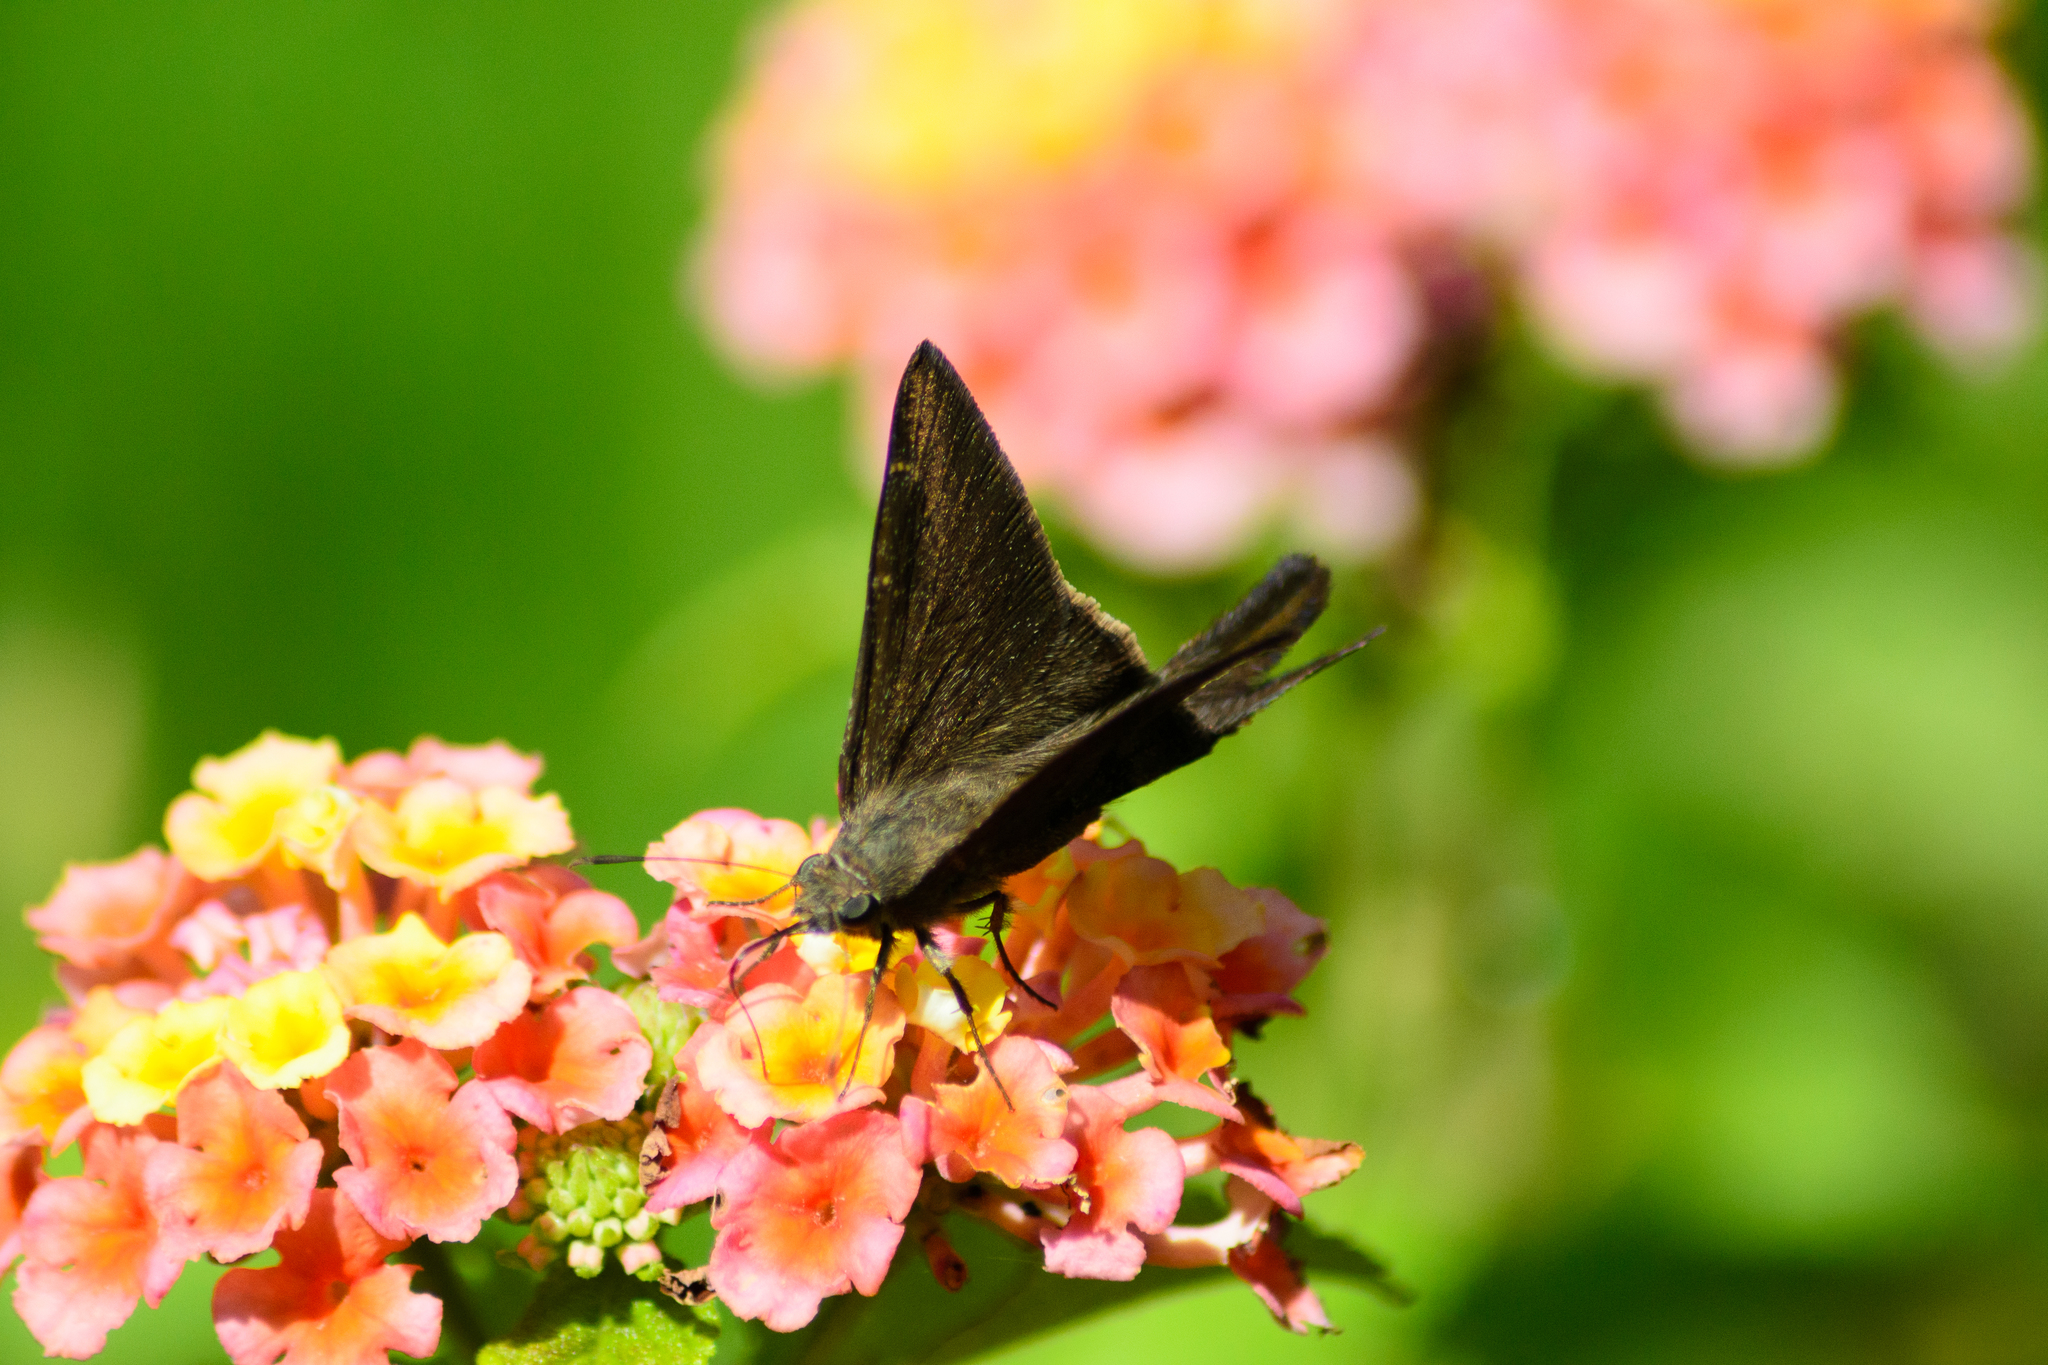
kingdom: Animalia
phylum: Arthropoda
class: Insecta
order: Lepidoptera
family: Hesperiidae
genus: Urbanus
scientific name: Urbanus procne
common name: Brown longtail
